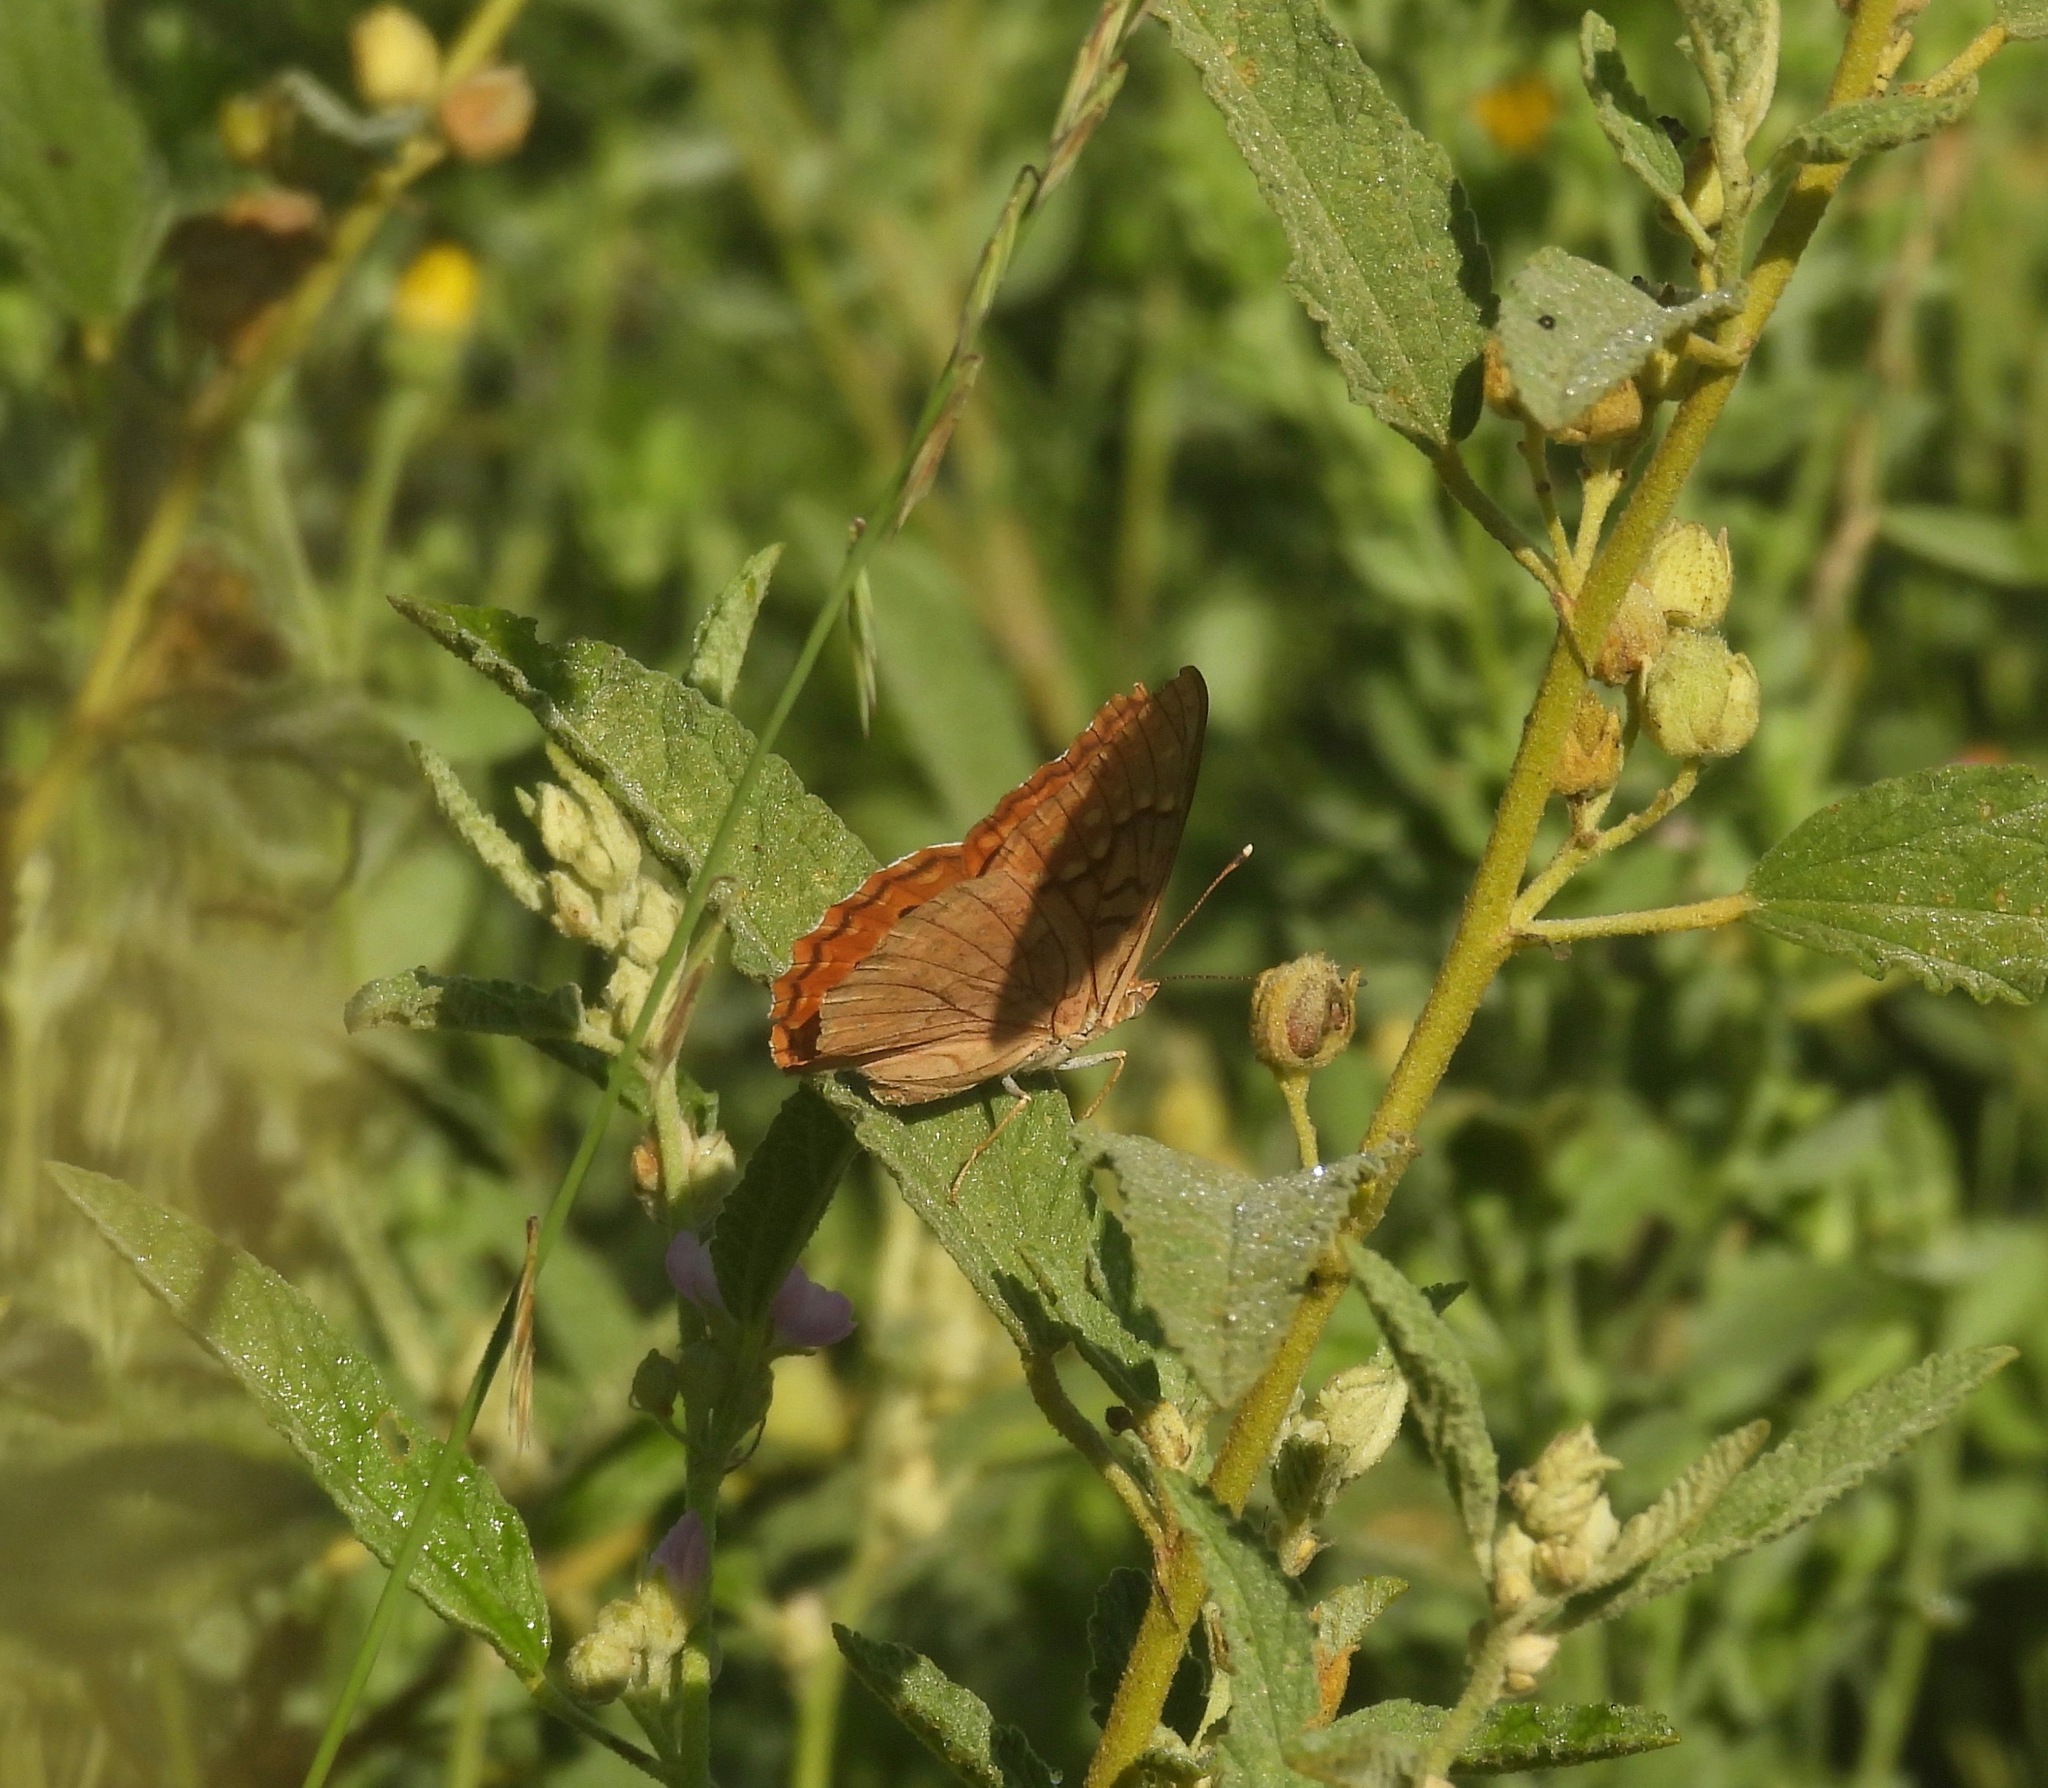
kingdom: Animalia
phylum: Arthropoda
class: Insecta
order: Lepidoptera
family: Nymphalidae
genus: Asterocampa
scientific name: Asterocampa clyton
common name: Tawny emperor
